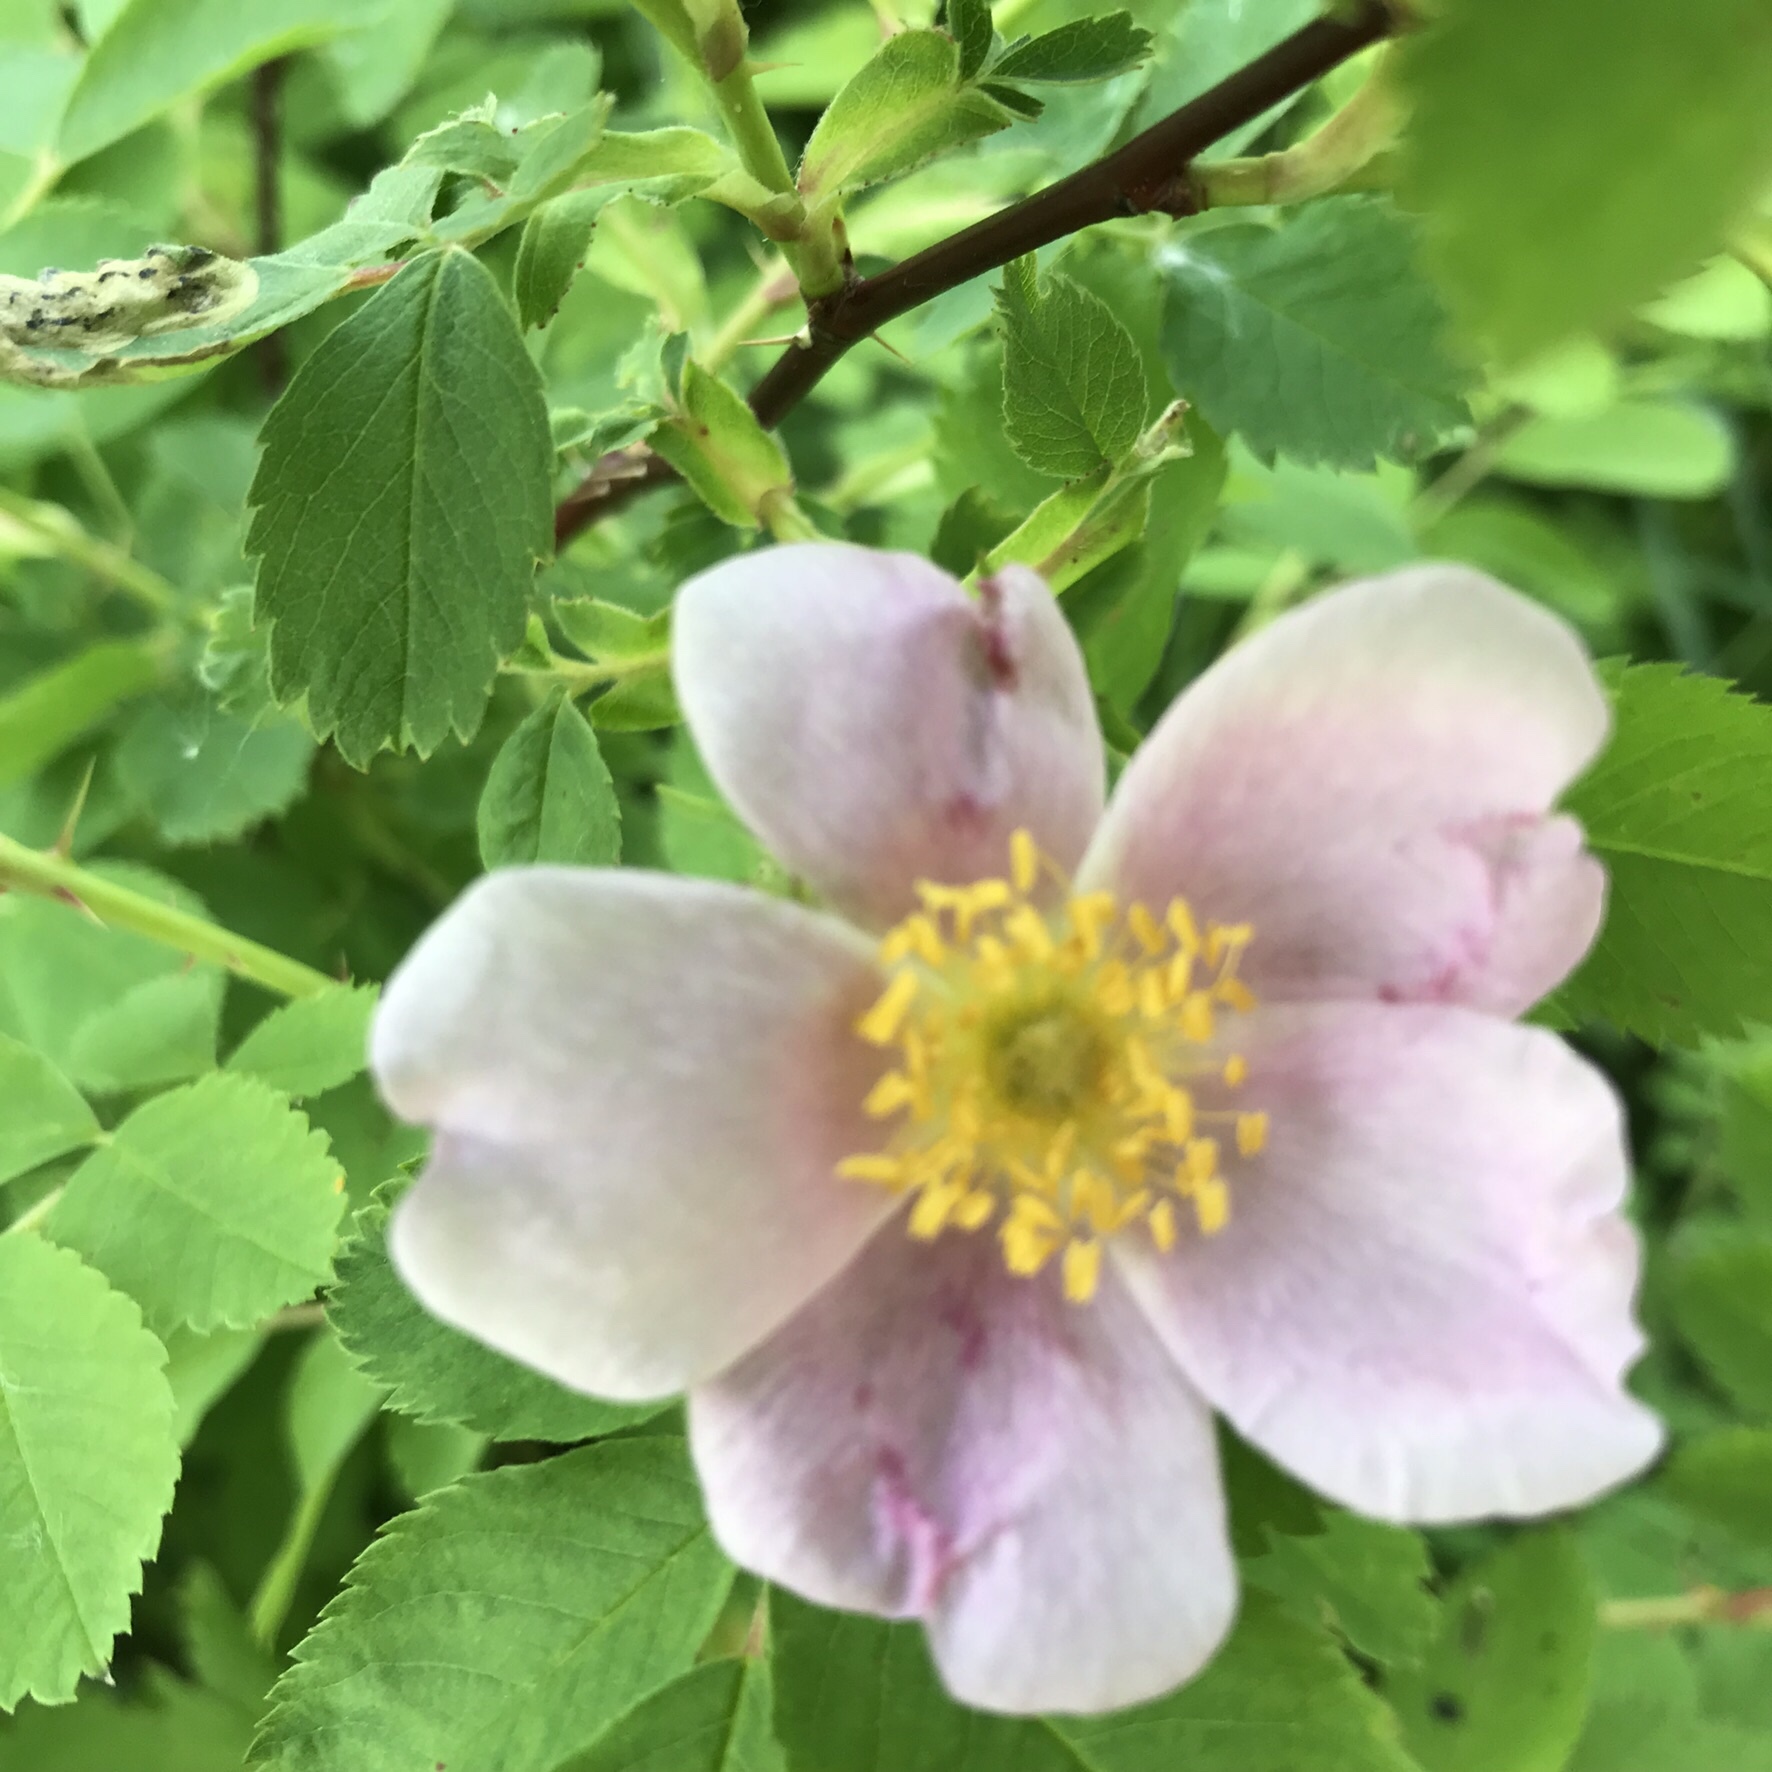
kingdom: Plantae
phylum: Tracheophyta
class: Magnoliopsida
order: Rosales
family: Rosaceae
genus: Rosa
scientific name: Rosa arkansana
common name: Prairie rose
